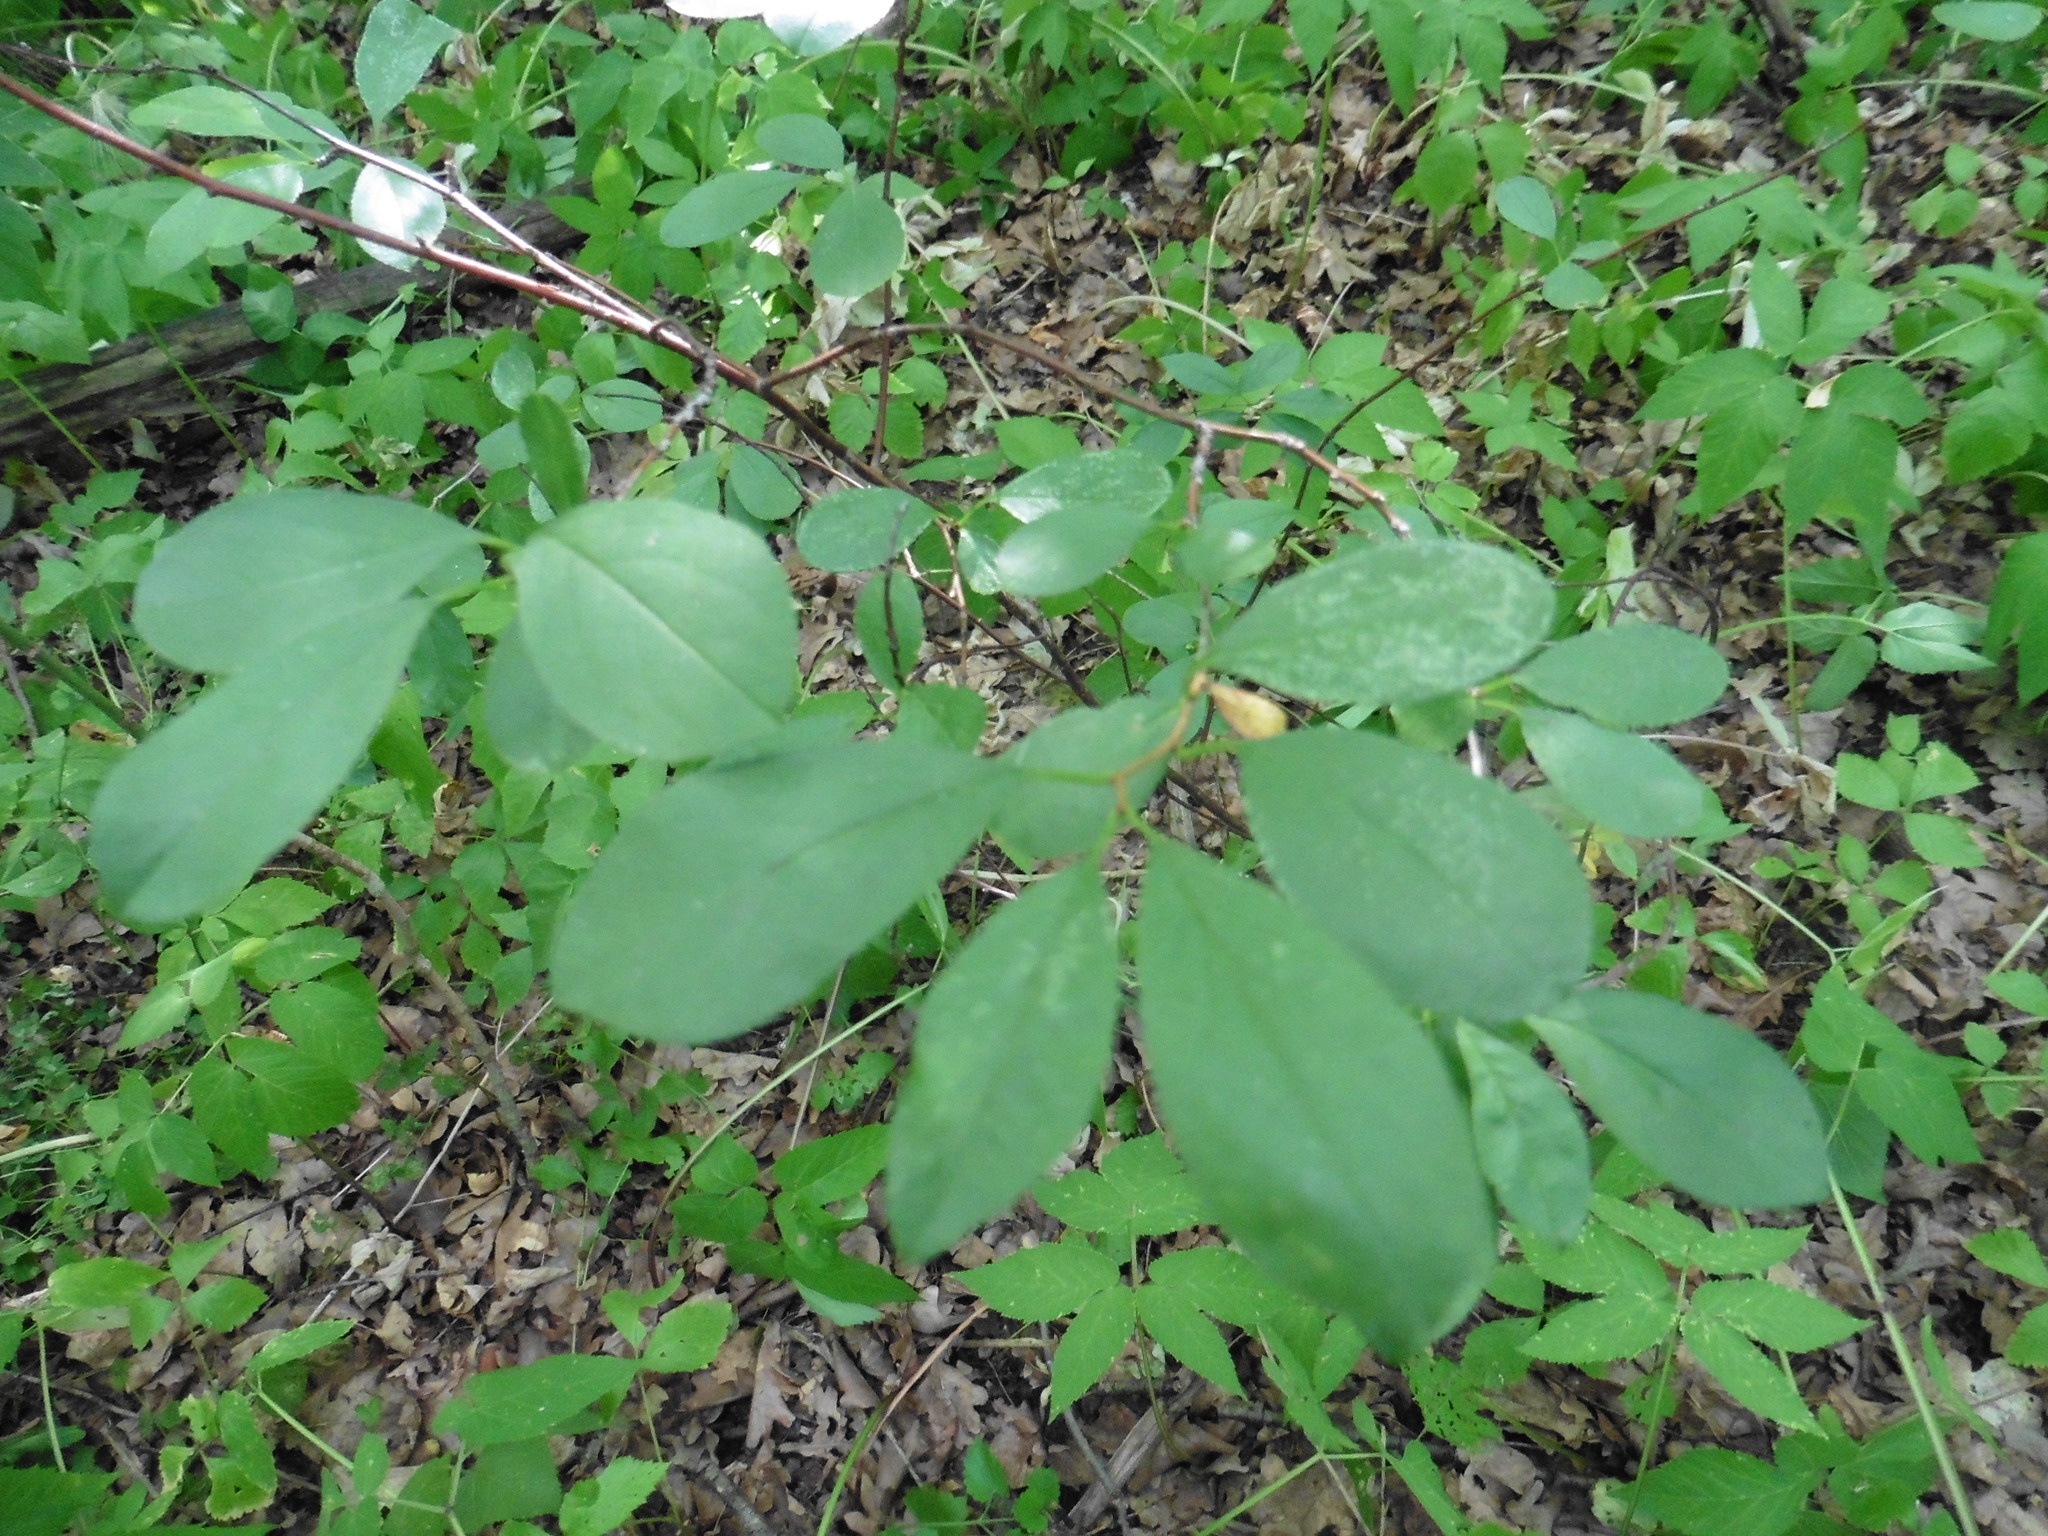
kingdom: Plantae
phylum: Tracheophyta
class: Magnoliopsida
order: Rosales
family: Rosaceae
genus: Prunus
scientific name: Prunus fruticosa
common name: European dwarf cherry
